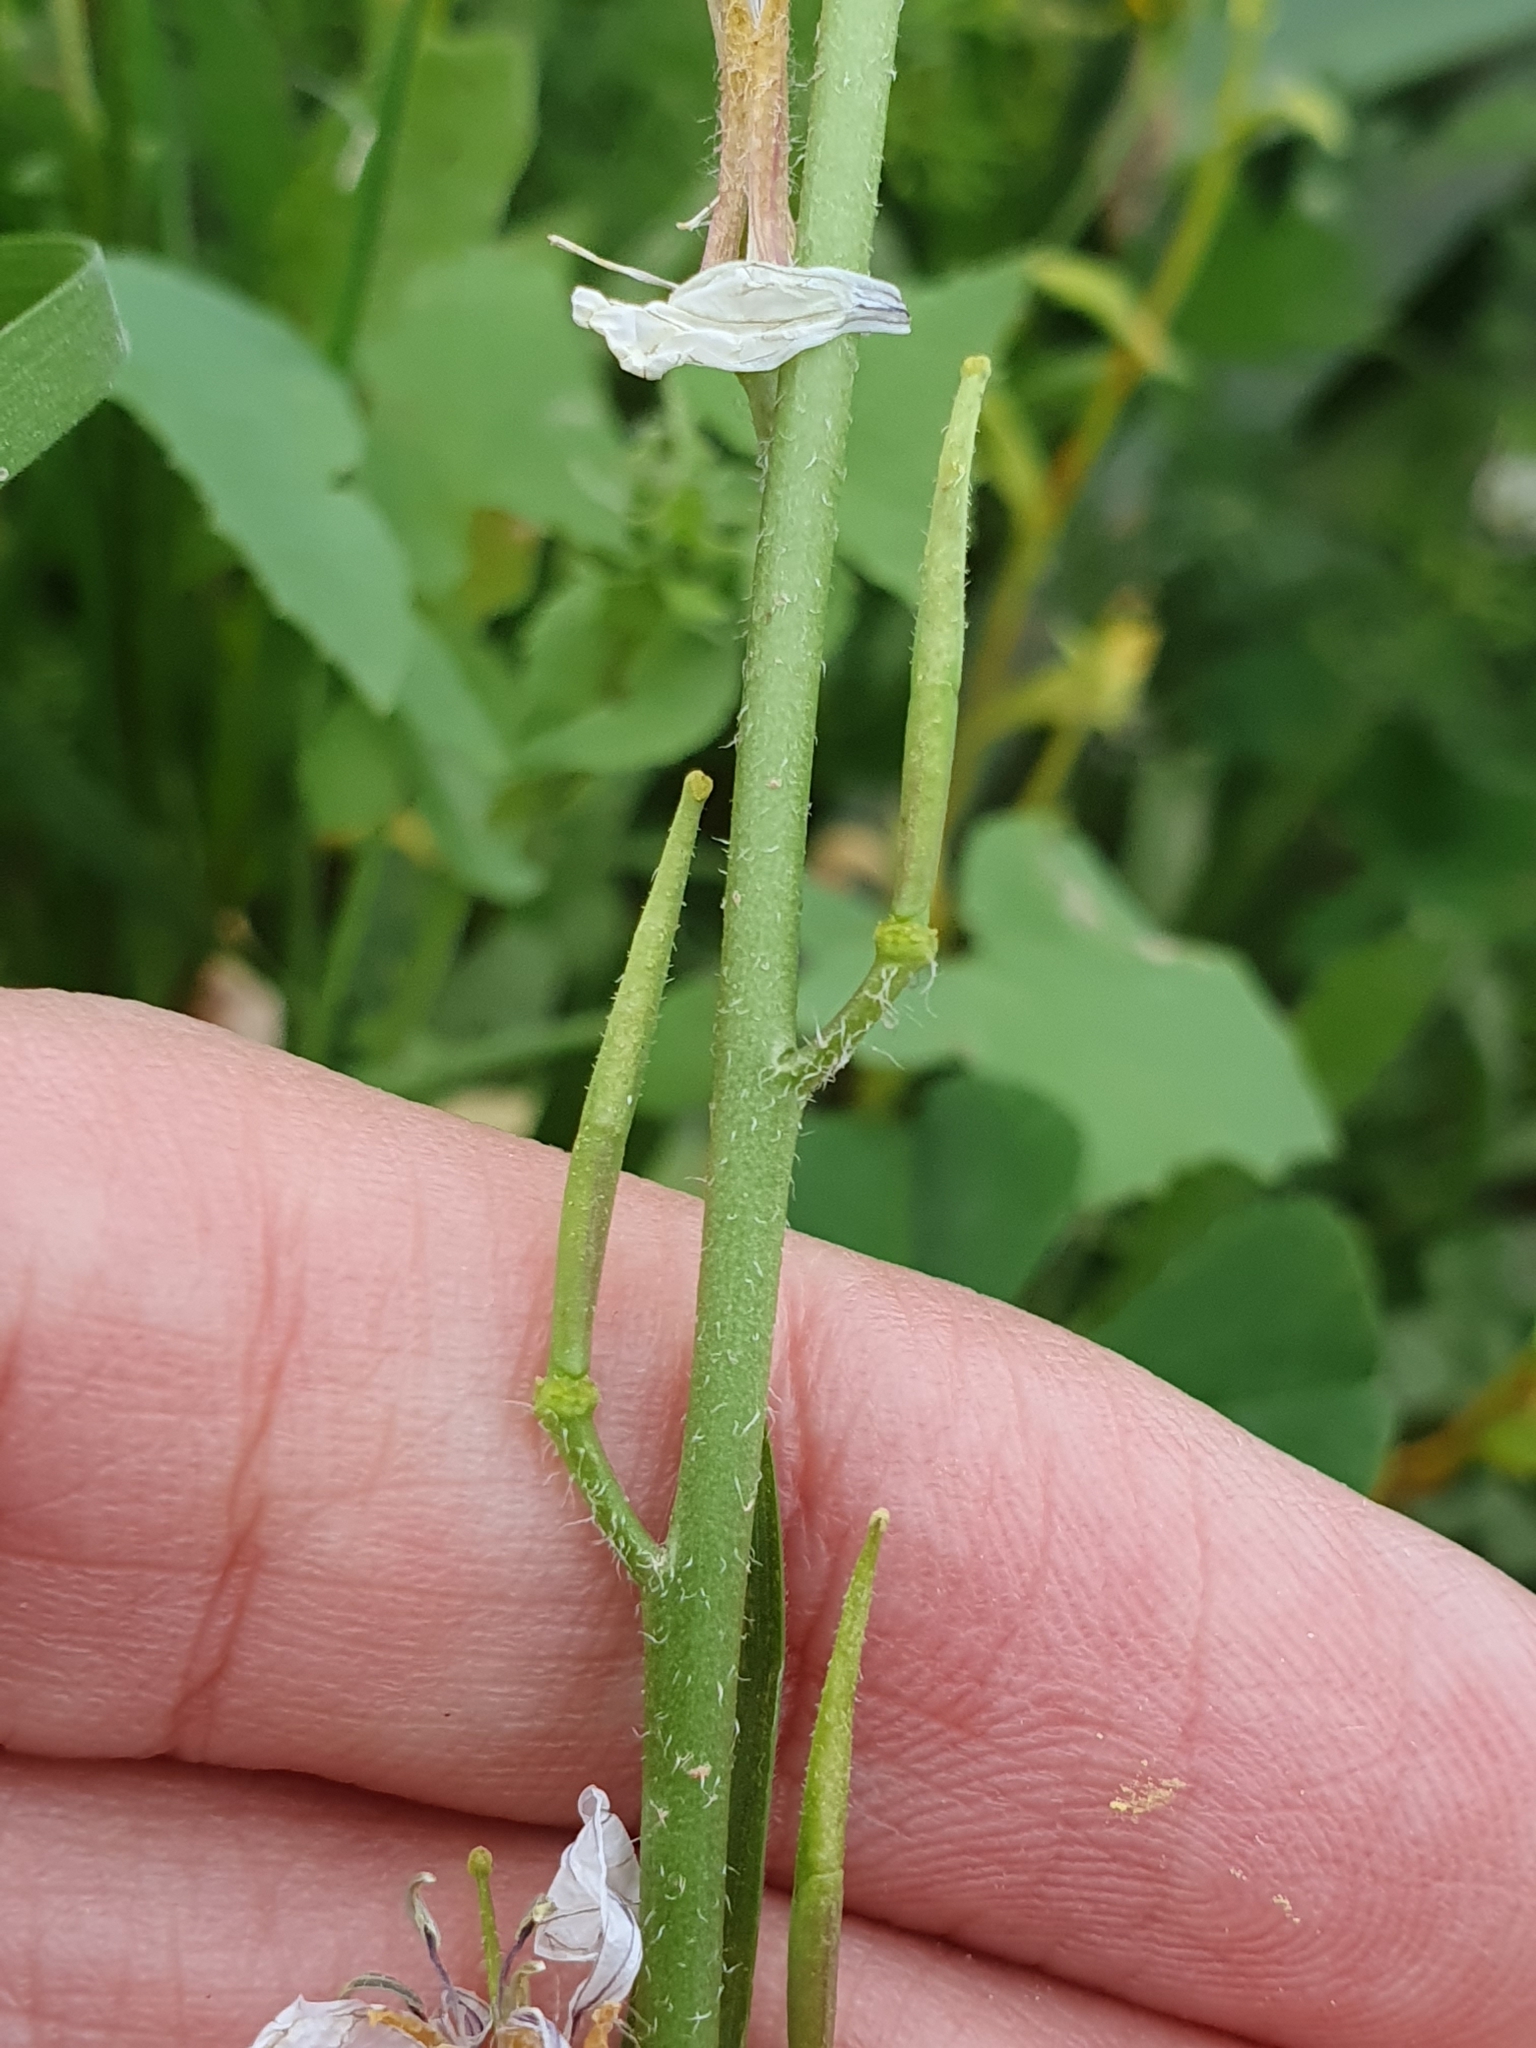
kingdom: Plantae
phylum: Tracheophyta
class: Magnoliopsida
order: Brassicales
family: Brassicaceae
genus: Eruca
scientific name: Eruca vesicaria
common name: Garden rocket
